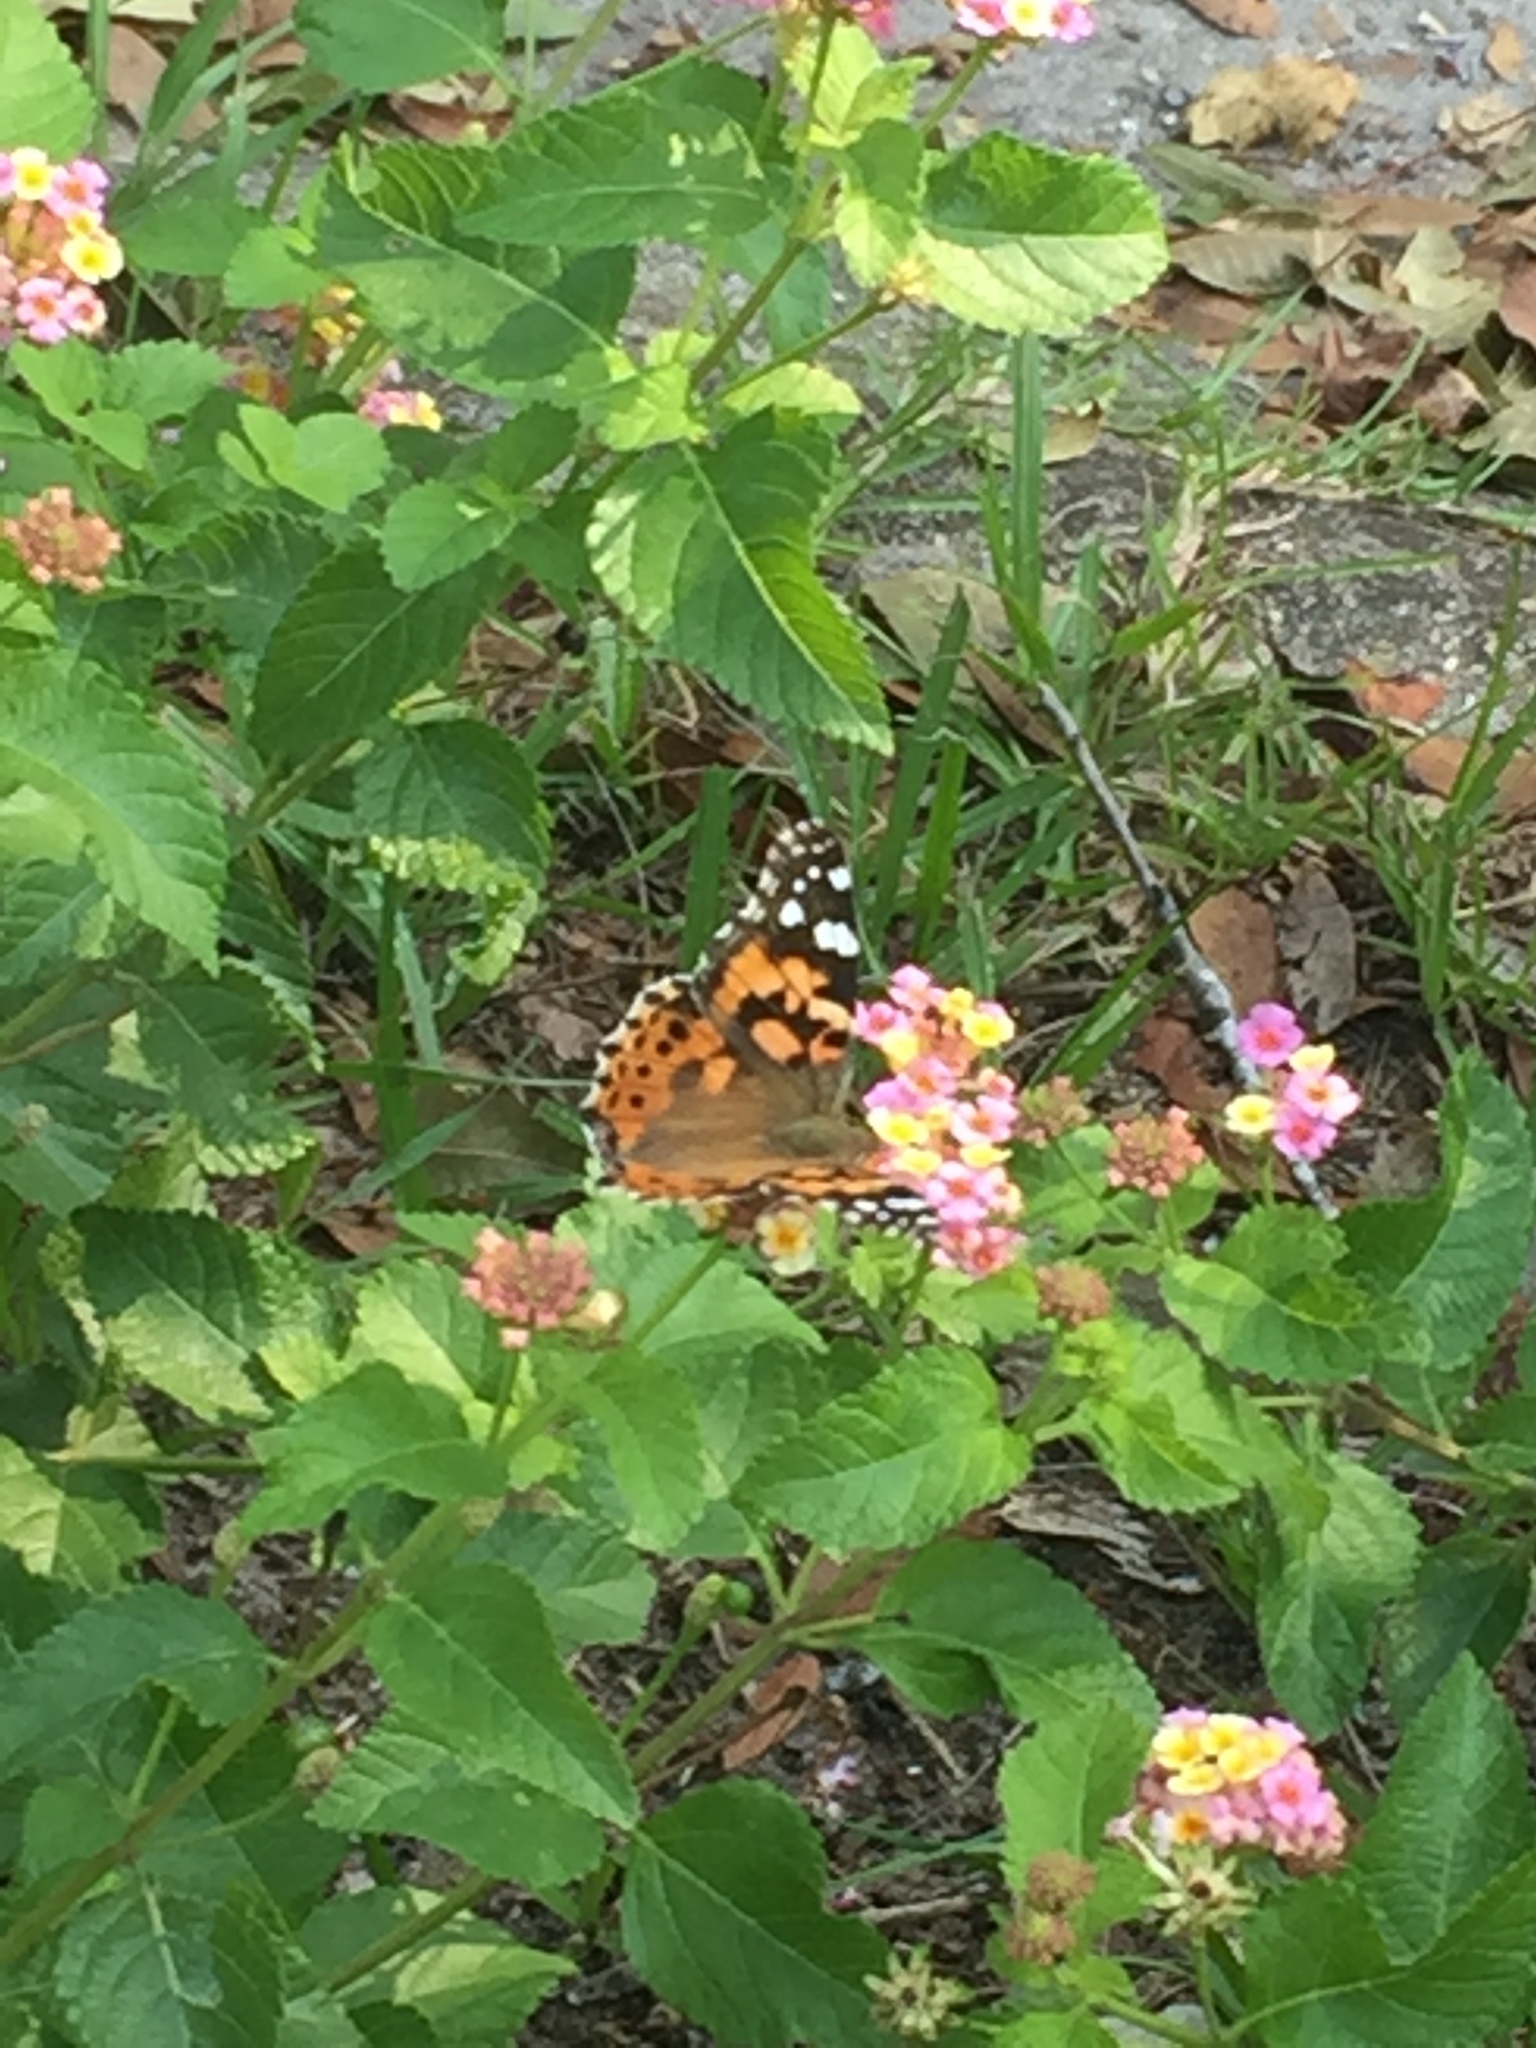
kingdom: Animalia
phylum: Arthropoda
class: Insecta
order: Lepidoptera
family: Nymphalidae
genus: Vanessa
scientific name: Vanessa cardui
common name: Painted lady
